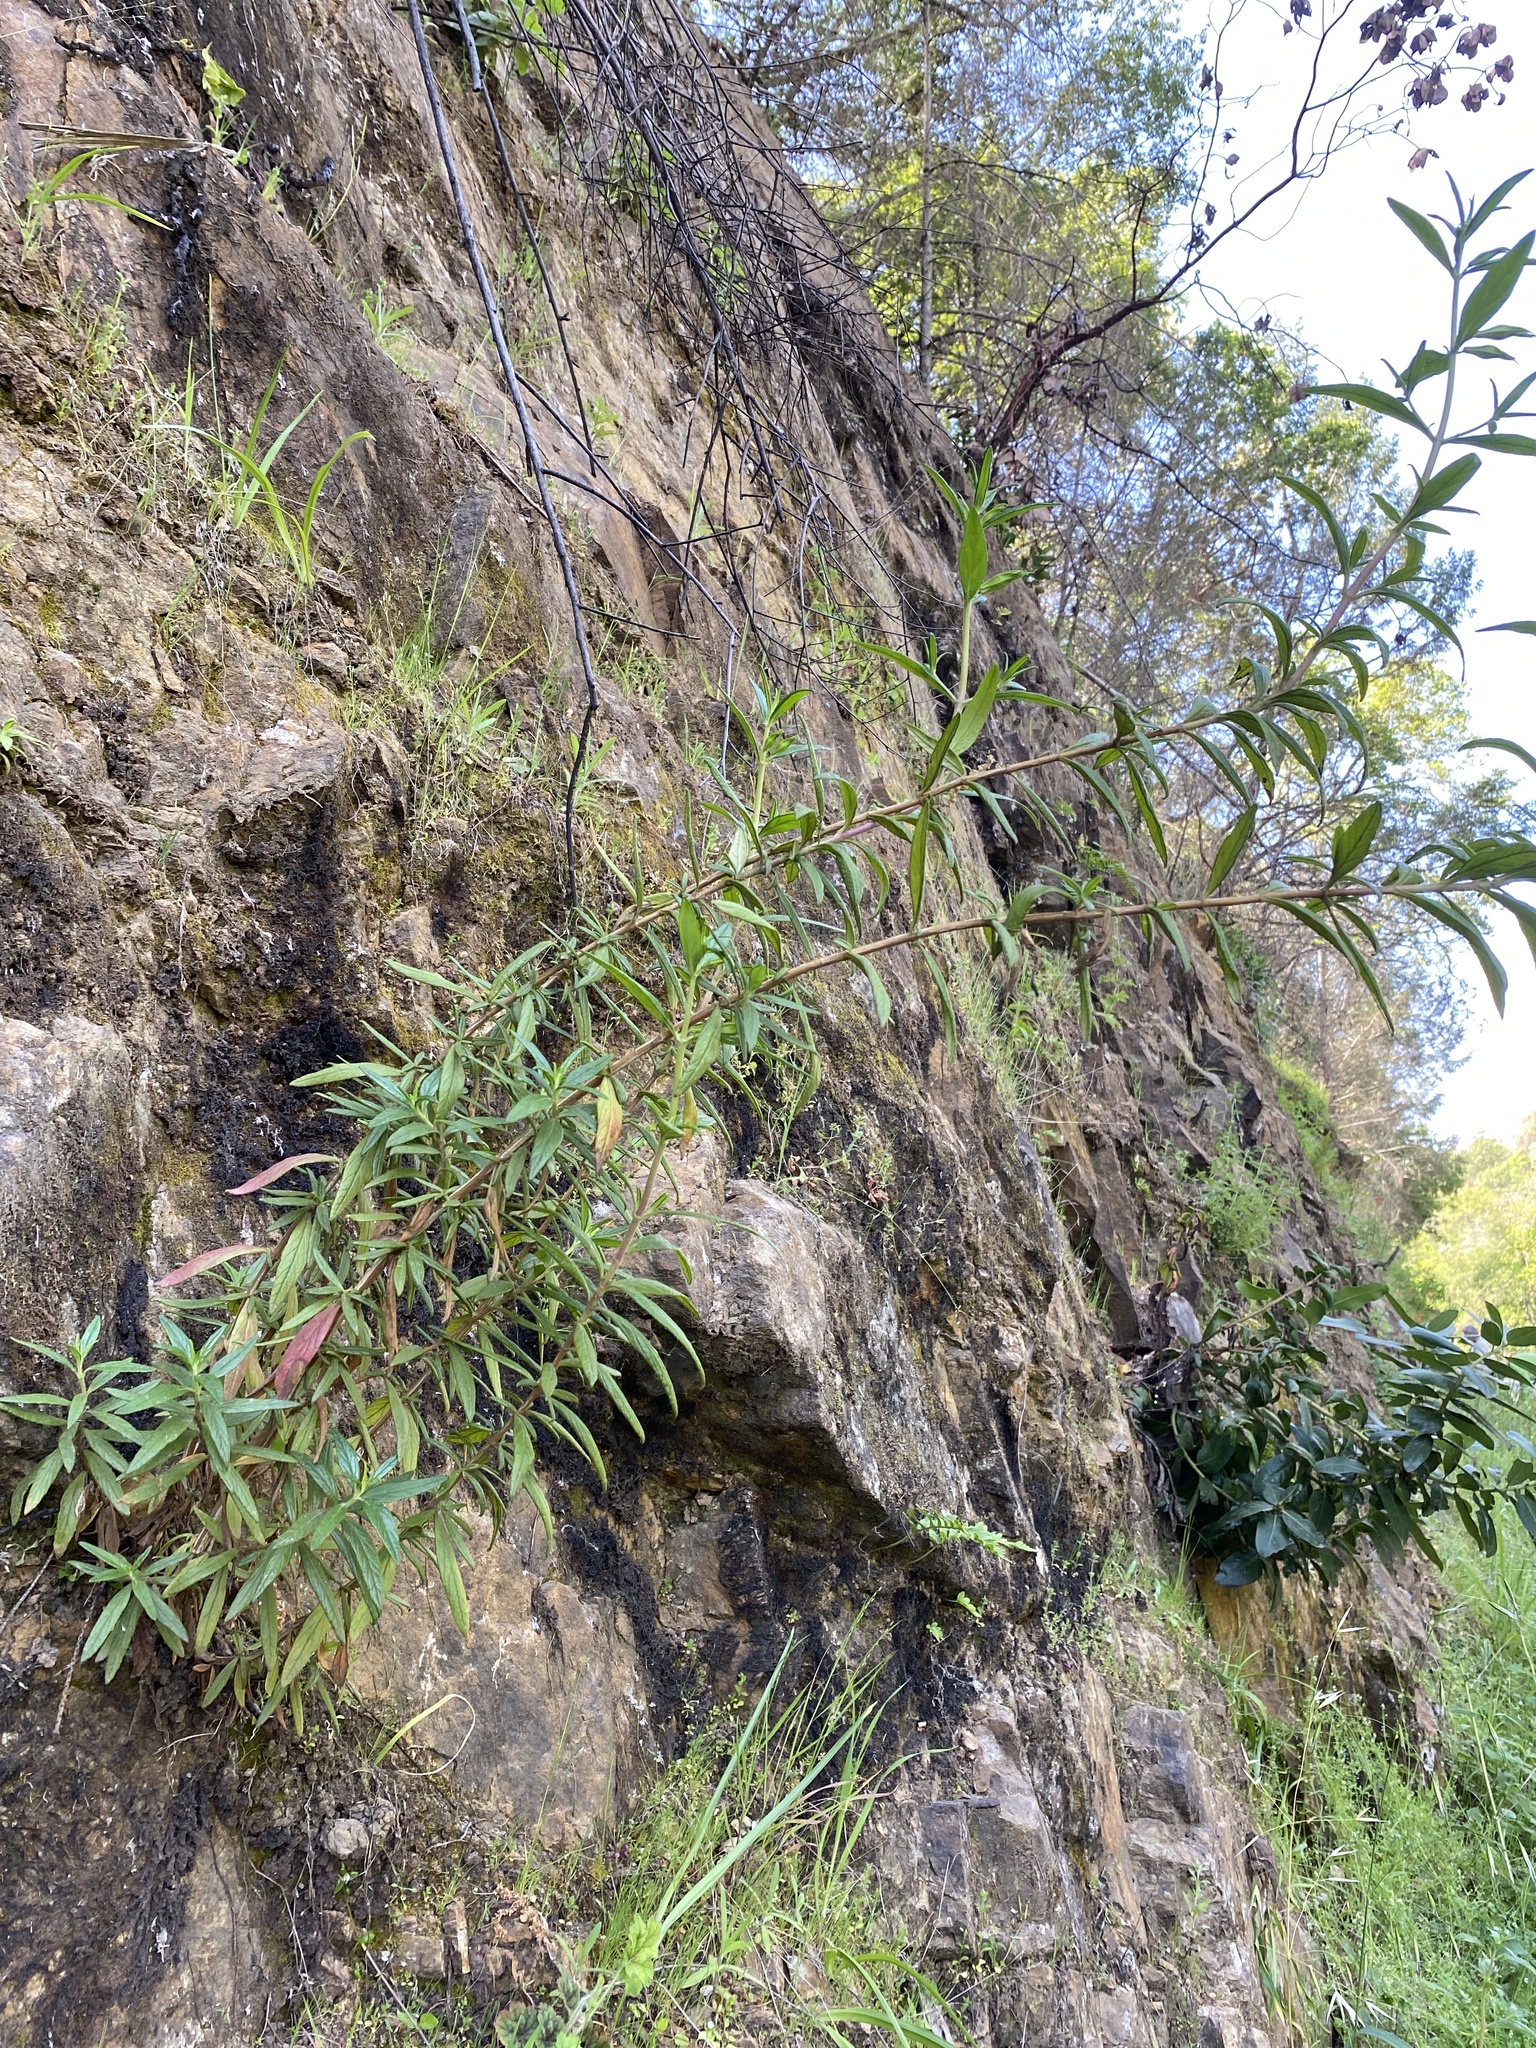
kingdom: Plantae
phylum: Tracheophyta
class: Magnoliopsida
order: Lamiales
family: Phrymaceae
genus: Diplacus
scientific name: Diplacus aurantiacus
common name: Bush monkey-flower
